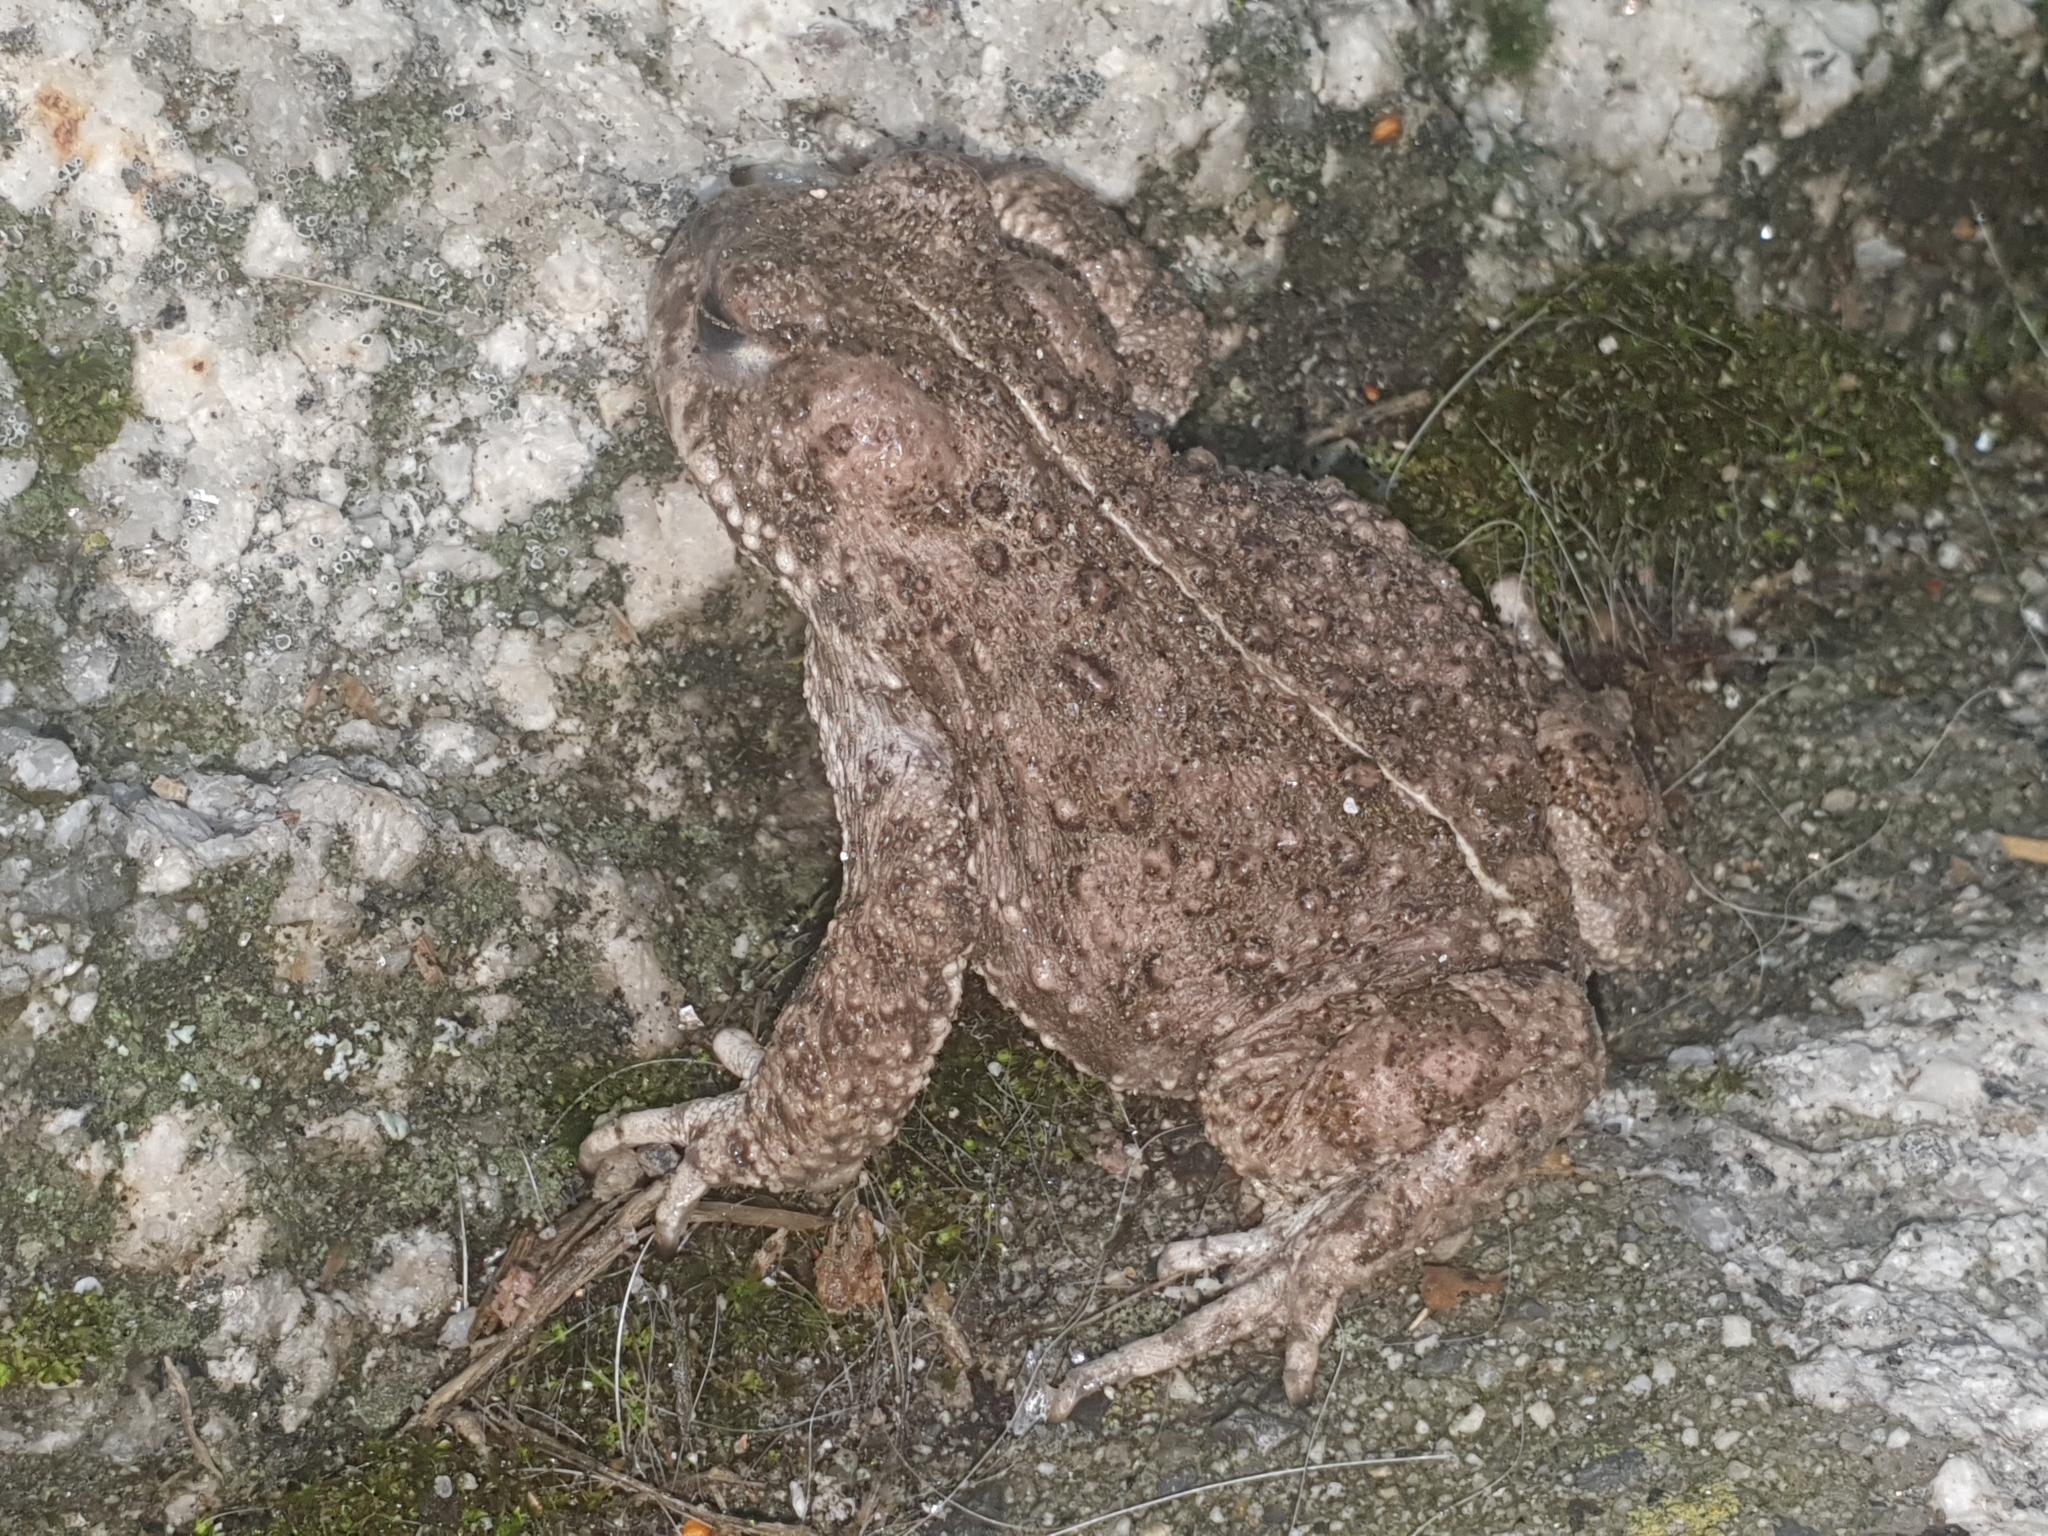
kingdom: Animalia
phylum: Chordata
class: Amphibia
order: Anura
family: Bufonidae
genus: Epidalea
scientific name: Epidalea calamita
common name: Natterjack toad
